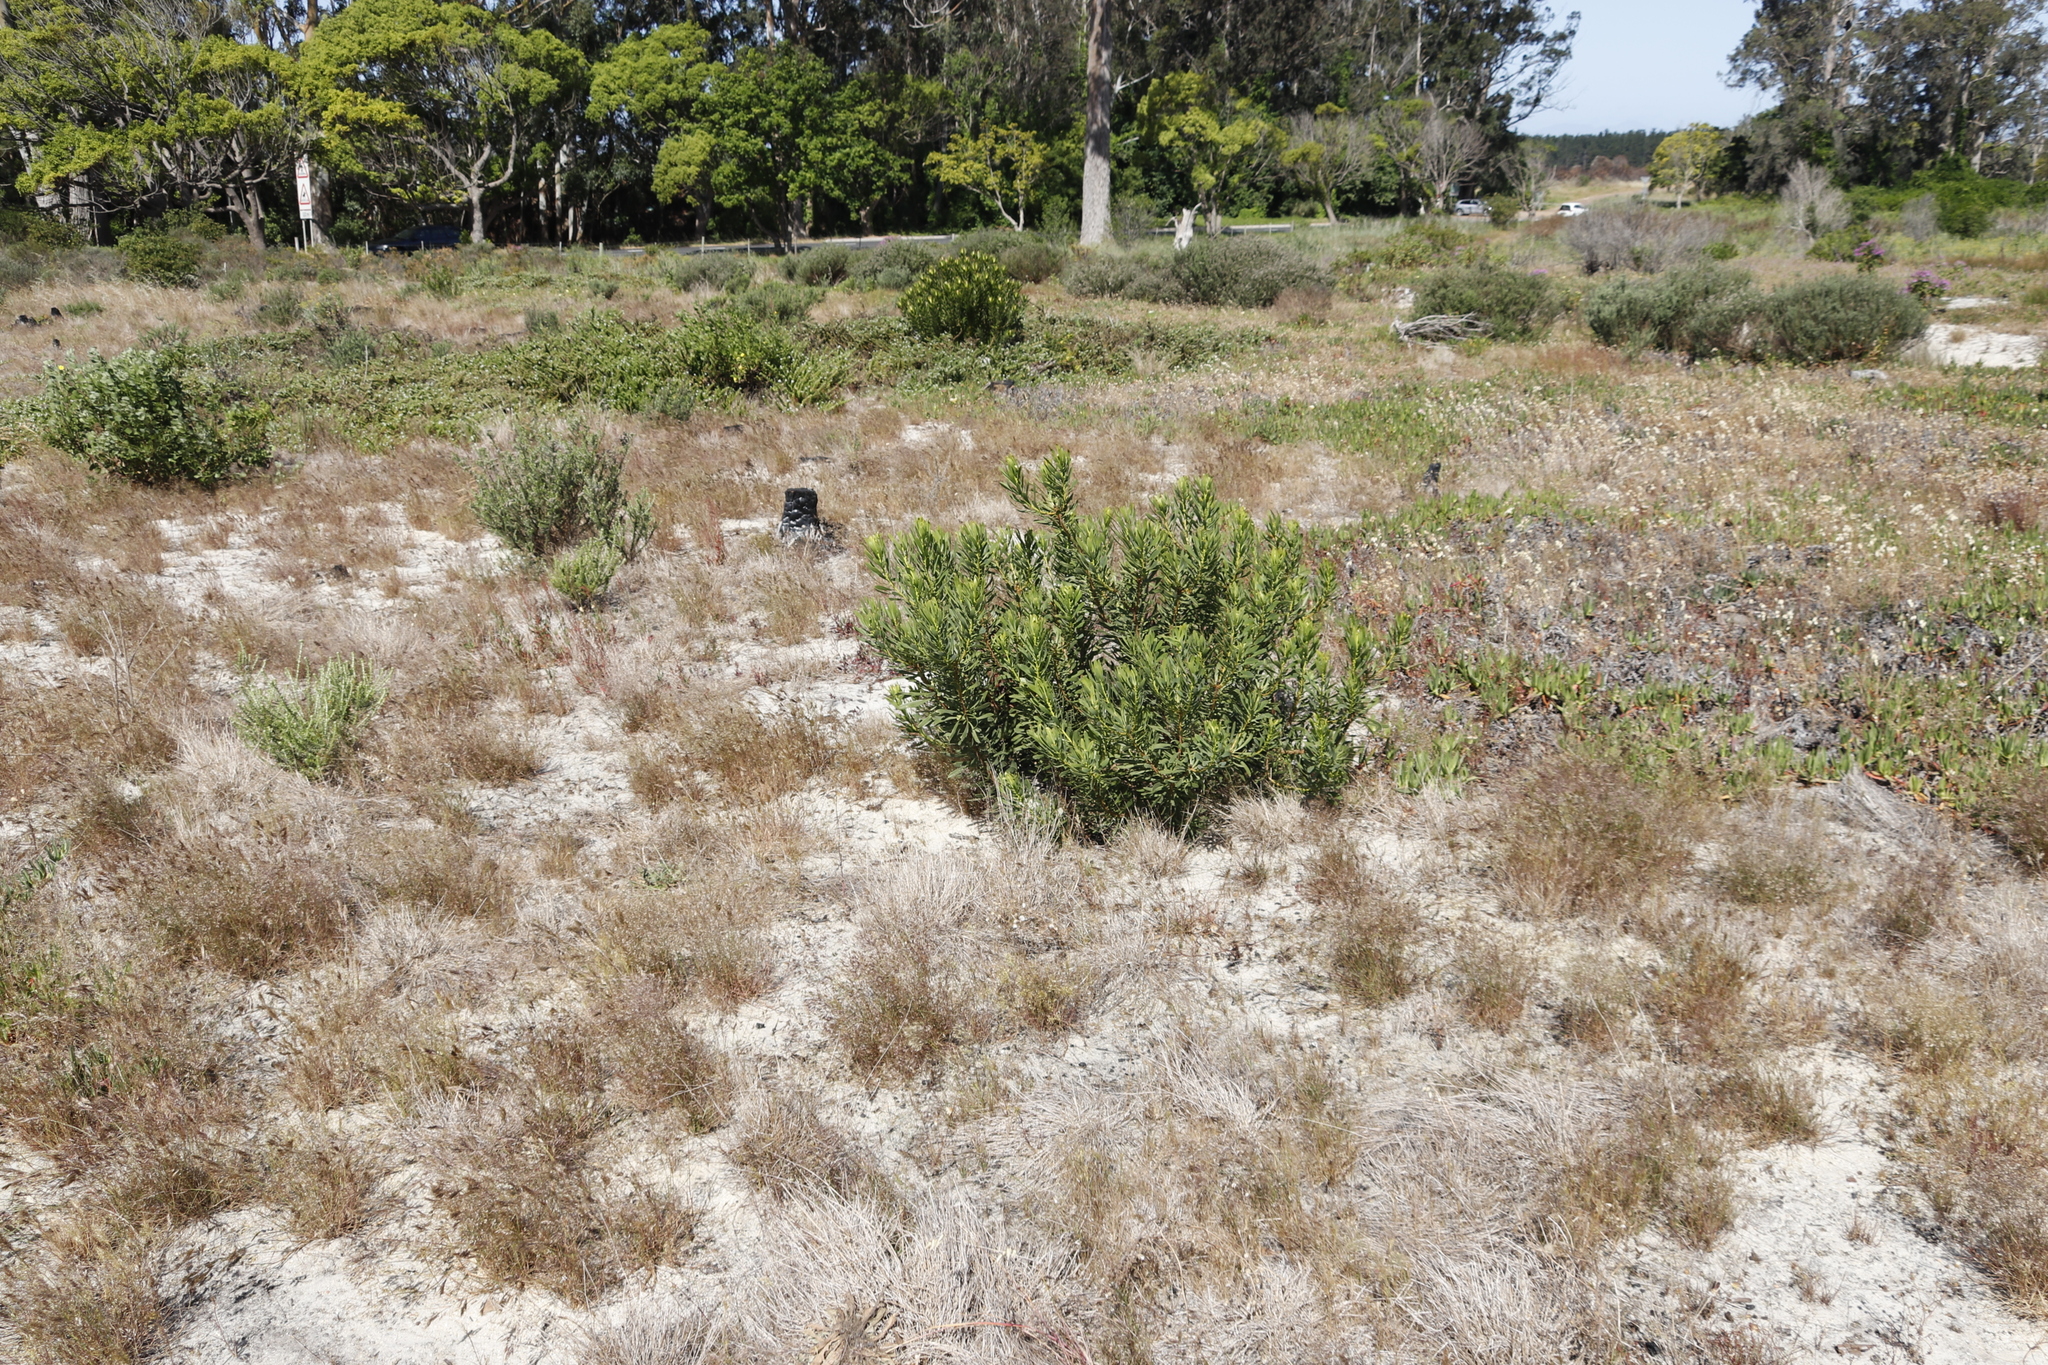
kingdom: Plantae
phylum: Tracheophyta
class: Magnoliopsida
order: Proteales
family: Proteaceae
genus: Protea
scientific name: Protea repens
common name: Sugarbush
